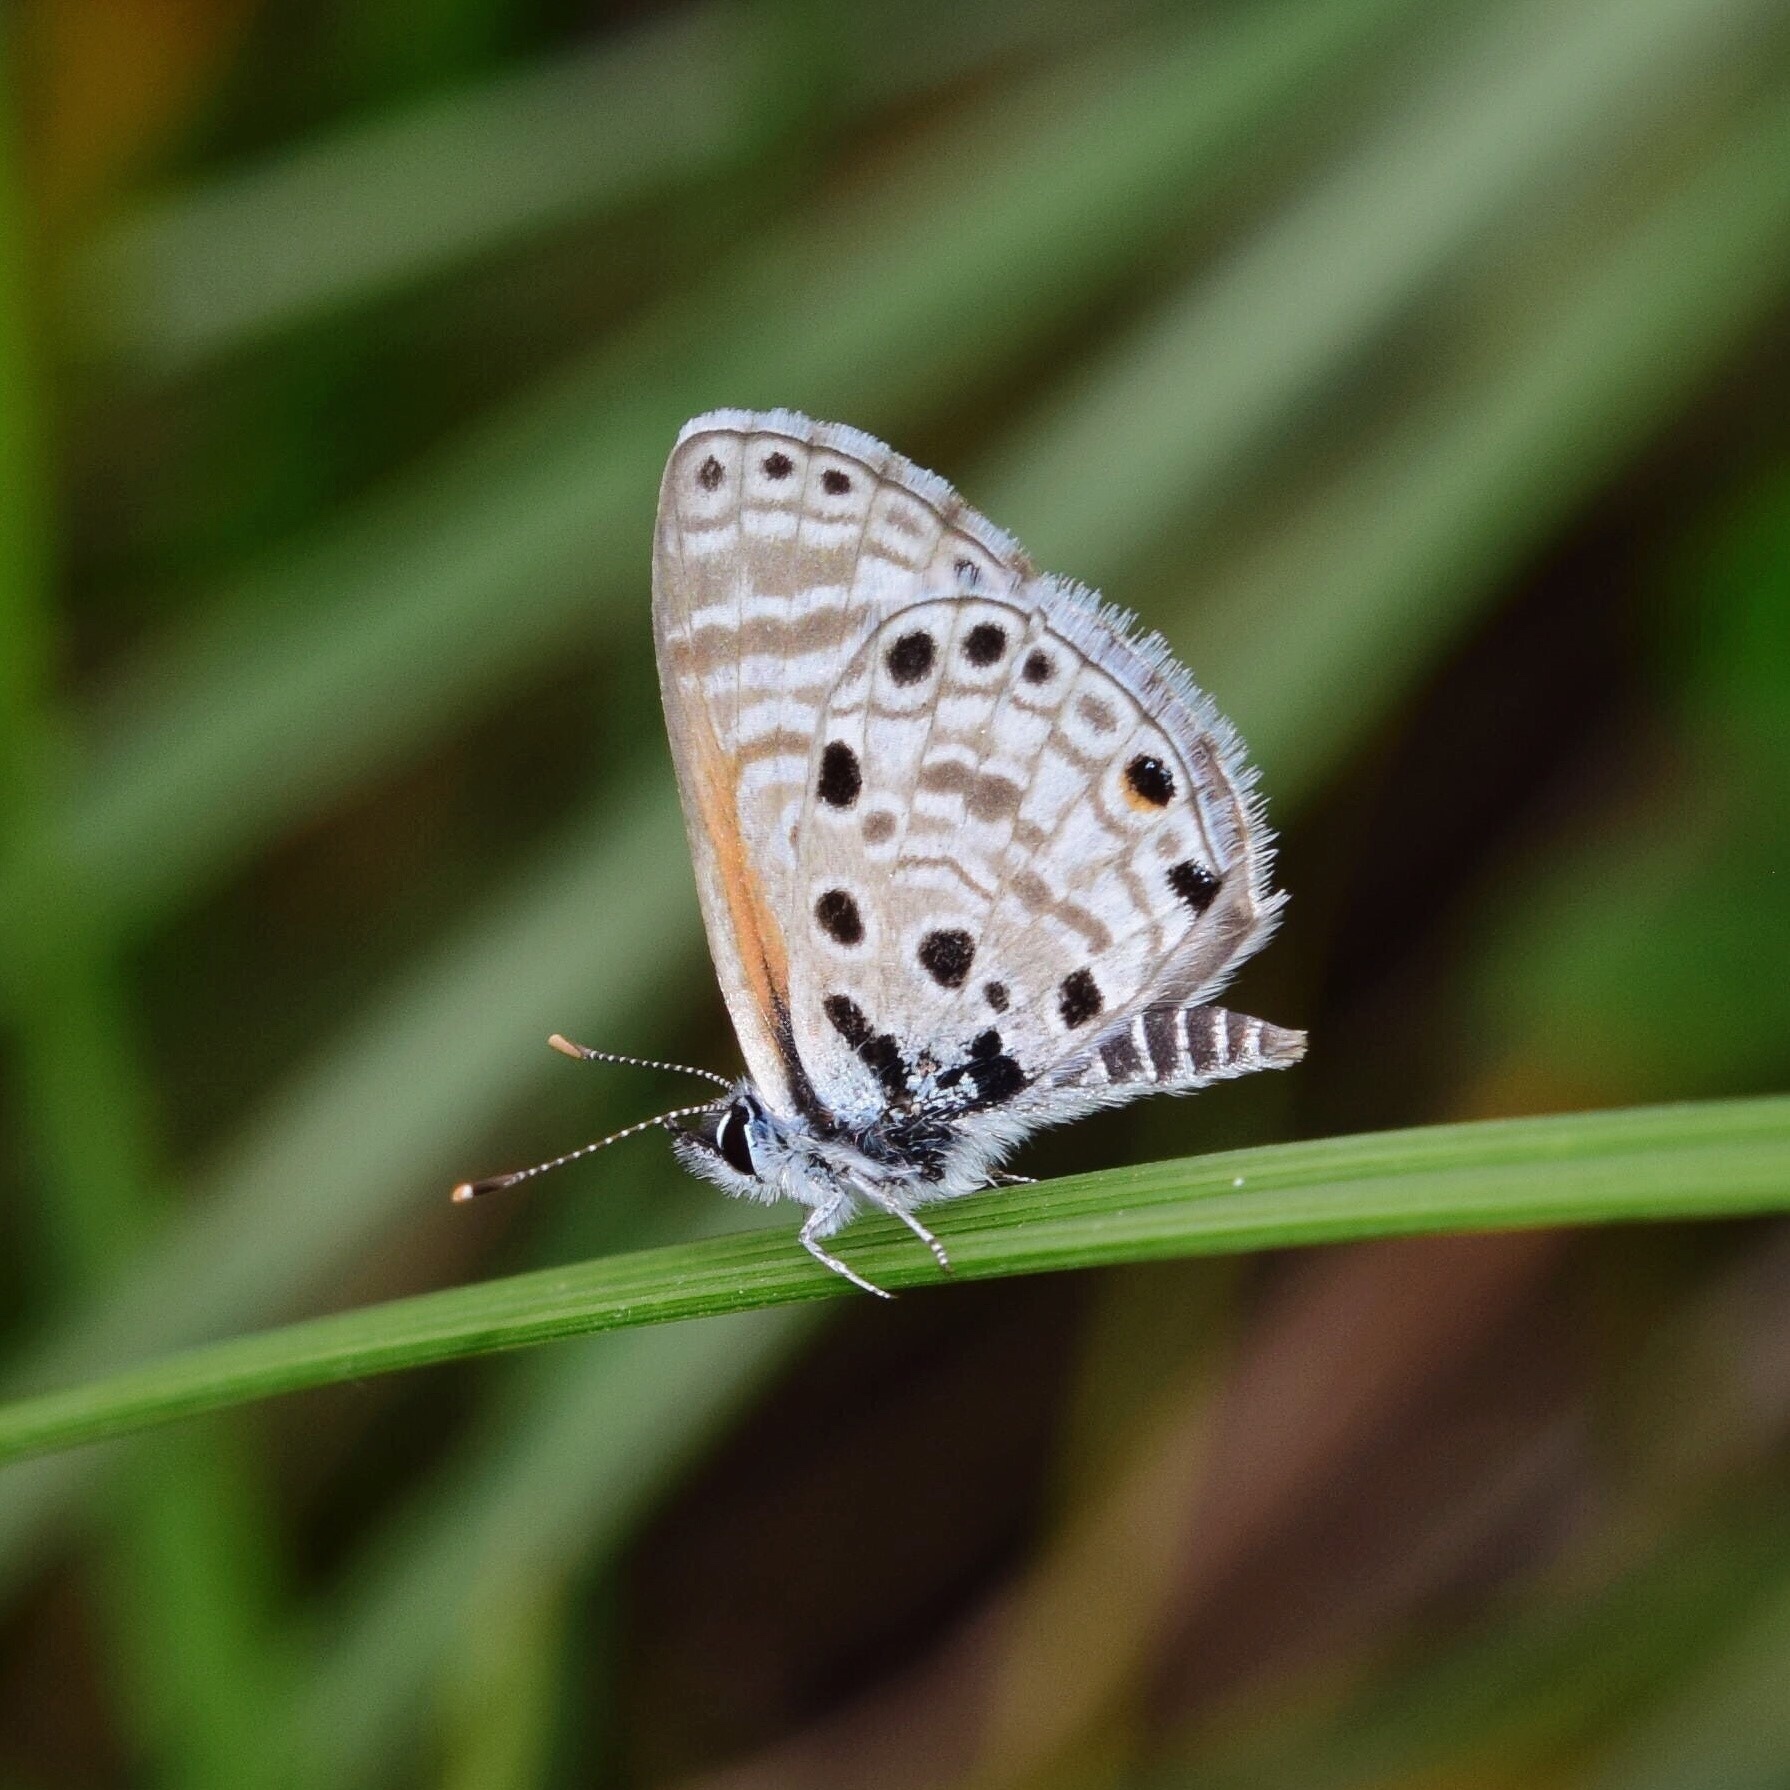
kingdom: Animalia
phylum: Arthropoda
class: Insecta
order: Lepidoptera
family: Lycaenidae
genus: Azanus
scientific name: Azanus jesous
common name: African babul blue
